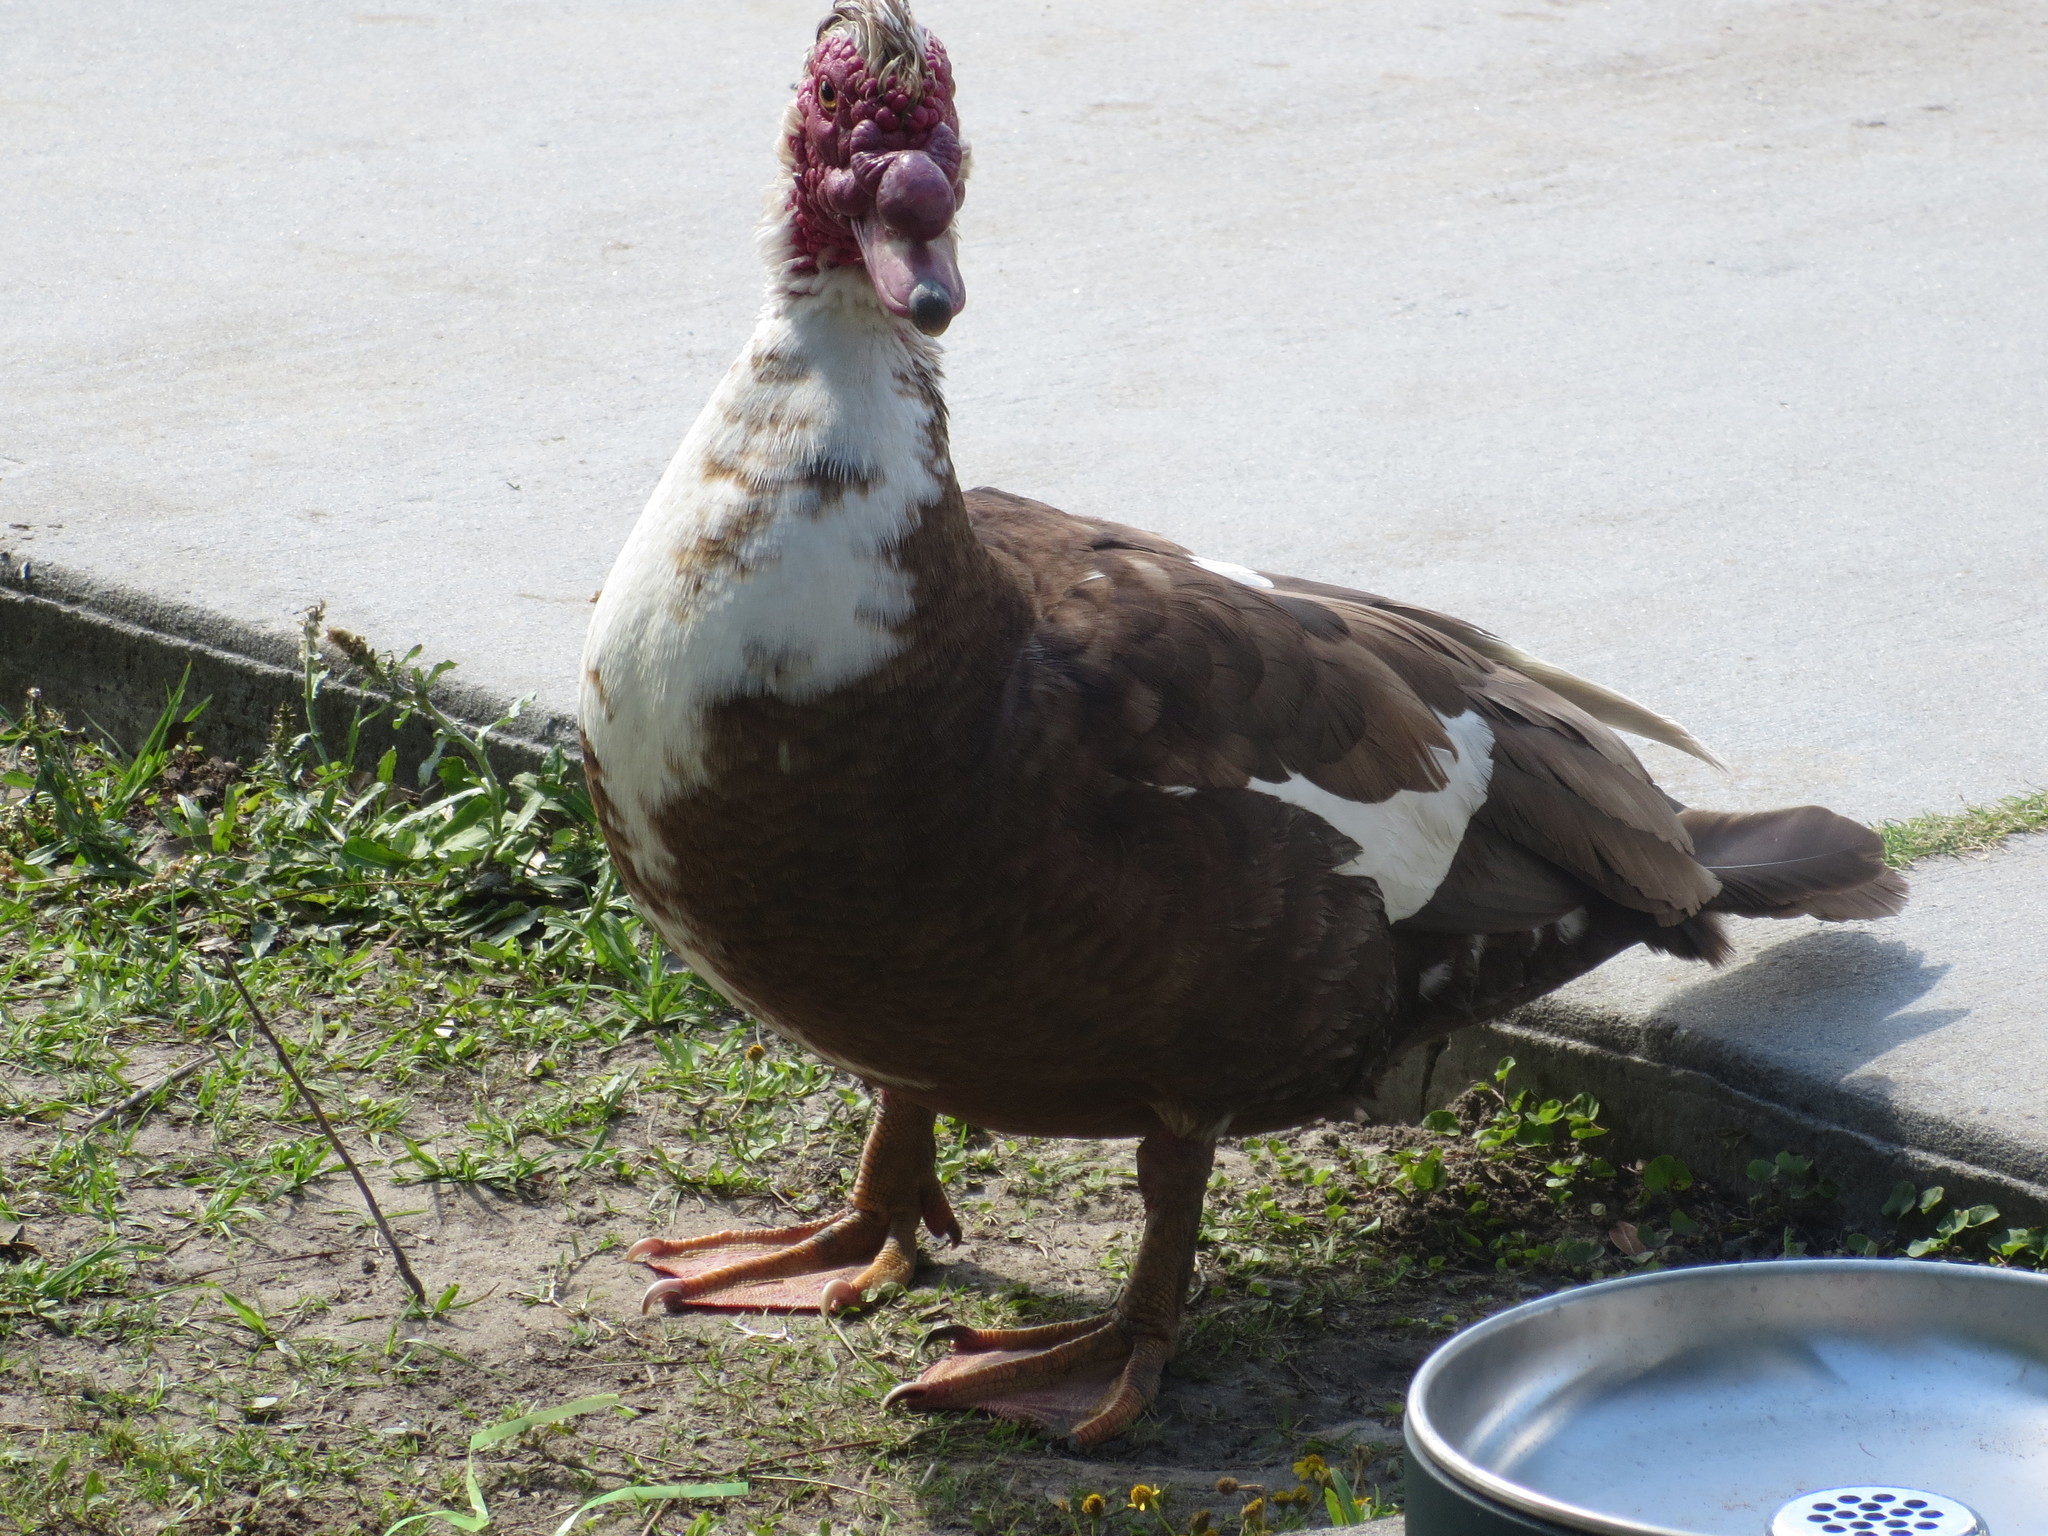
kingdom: Animalia
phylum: Chordata
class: Aves
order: Anseriformes
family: Anatidae
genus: Cairina
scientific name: Cairina moschata
